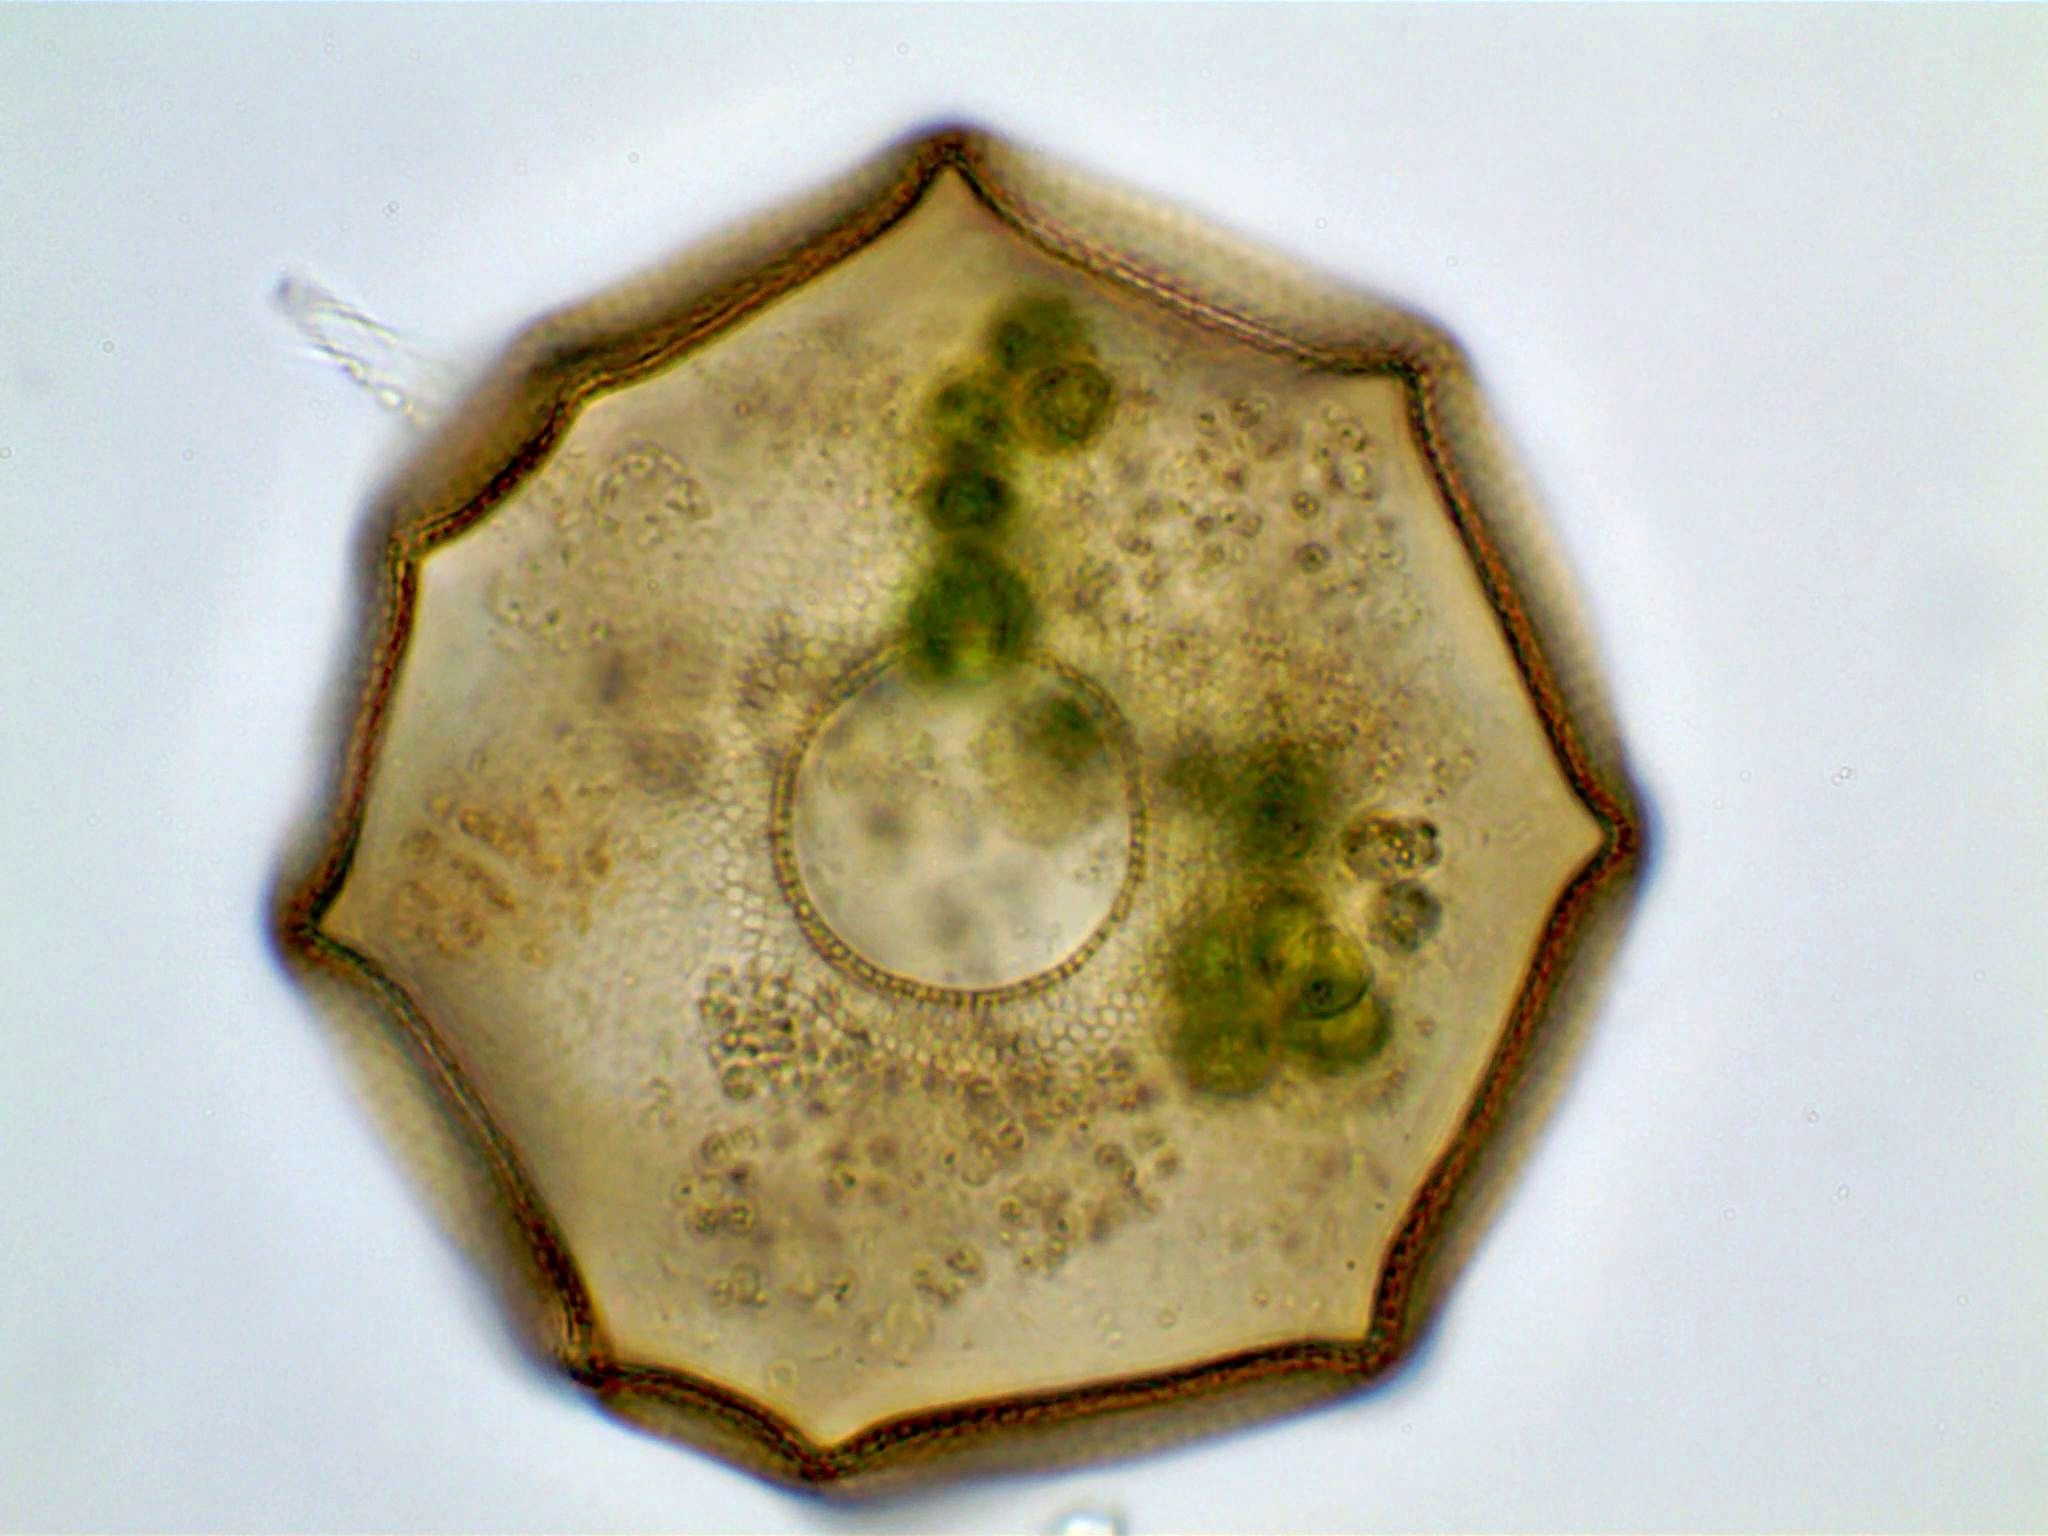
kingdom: Protozoa
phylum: Amoebozoa
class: Lobosa
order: Arcellinida
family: Arcellidae
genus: Arcella
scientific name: Arcella conica
